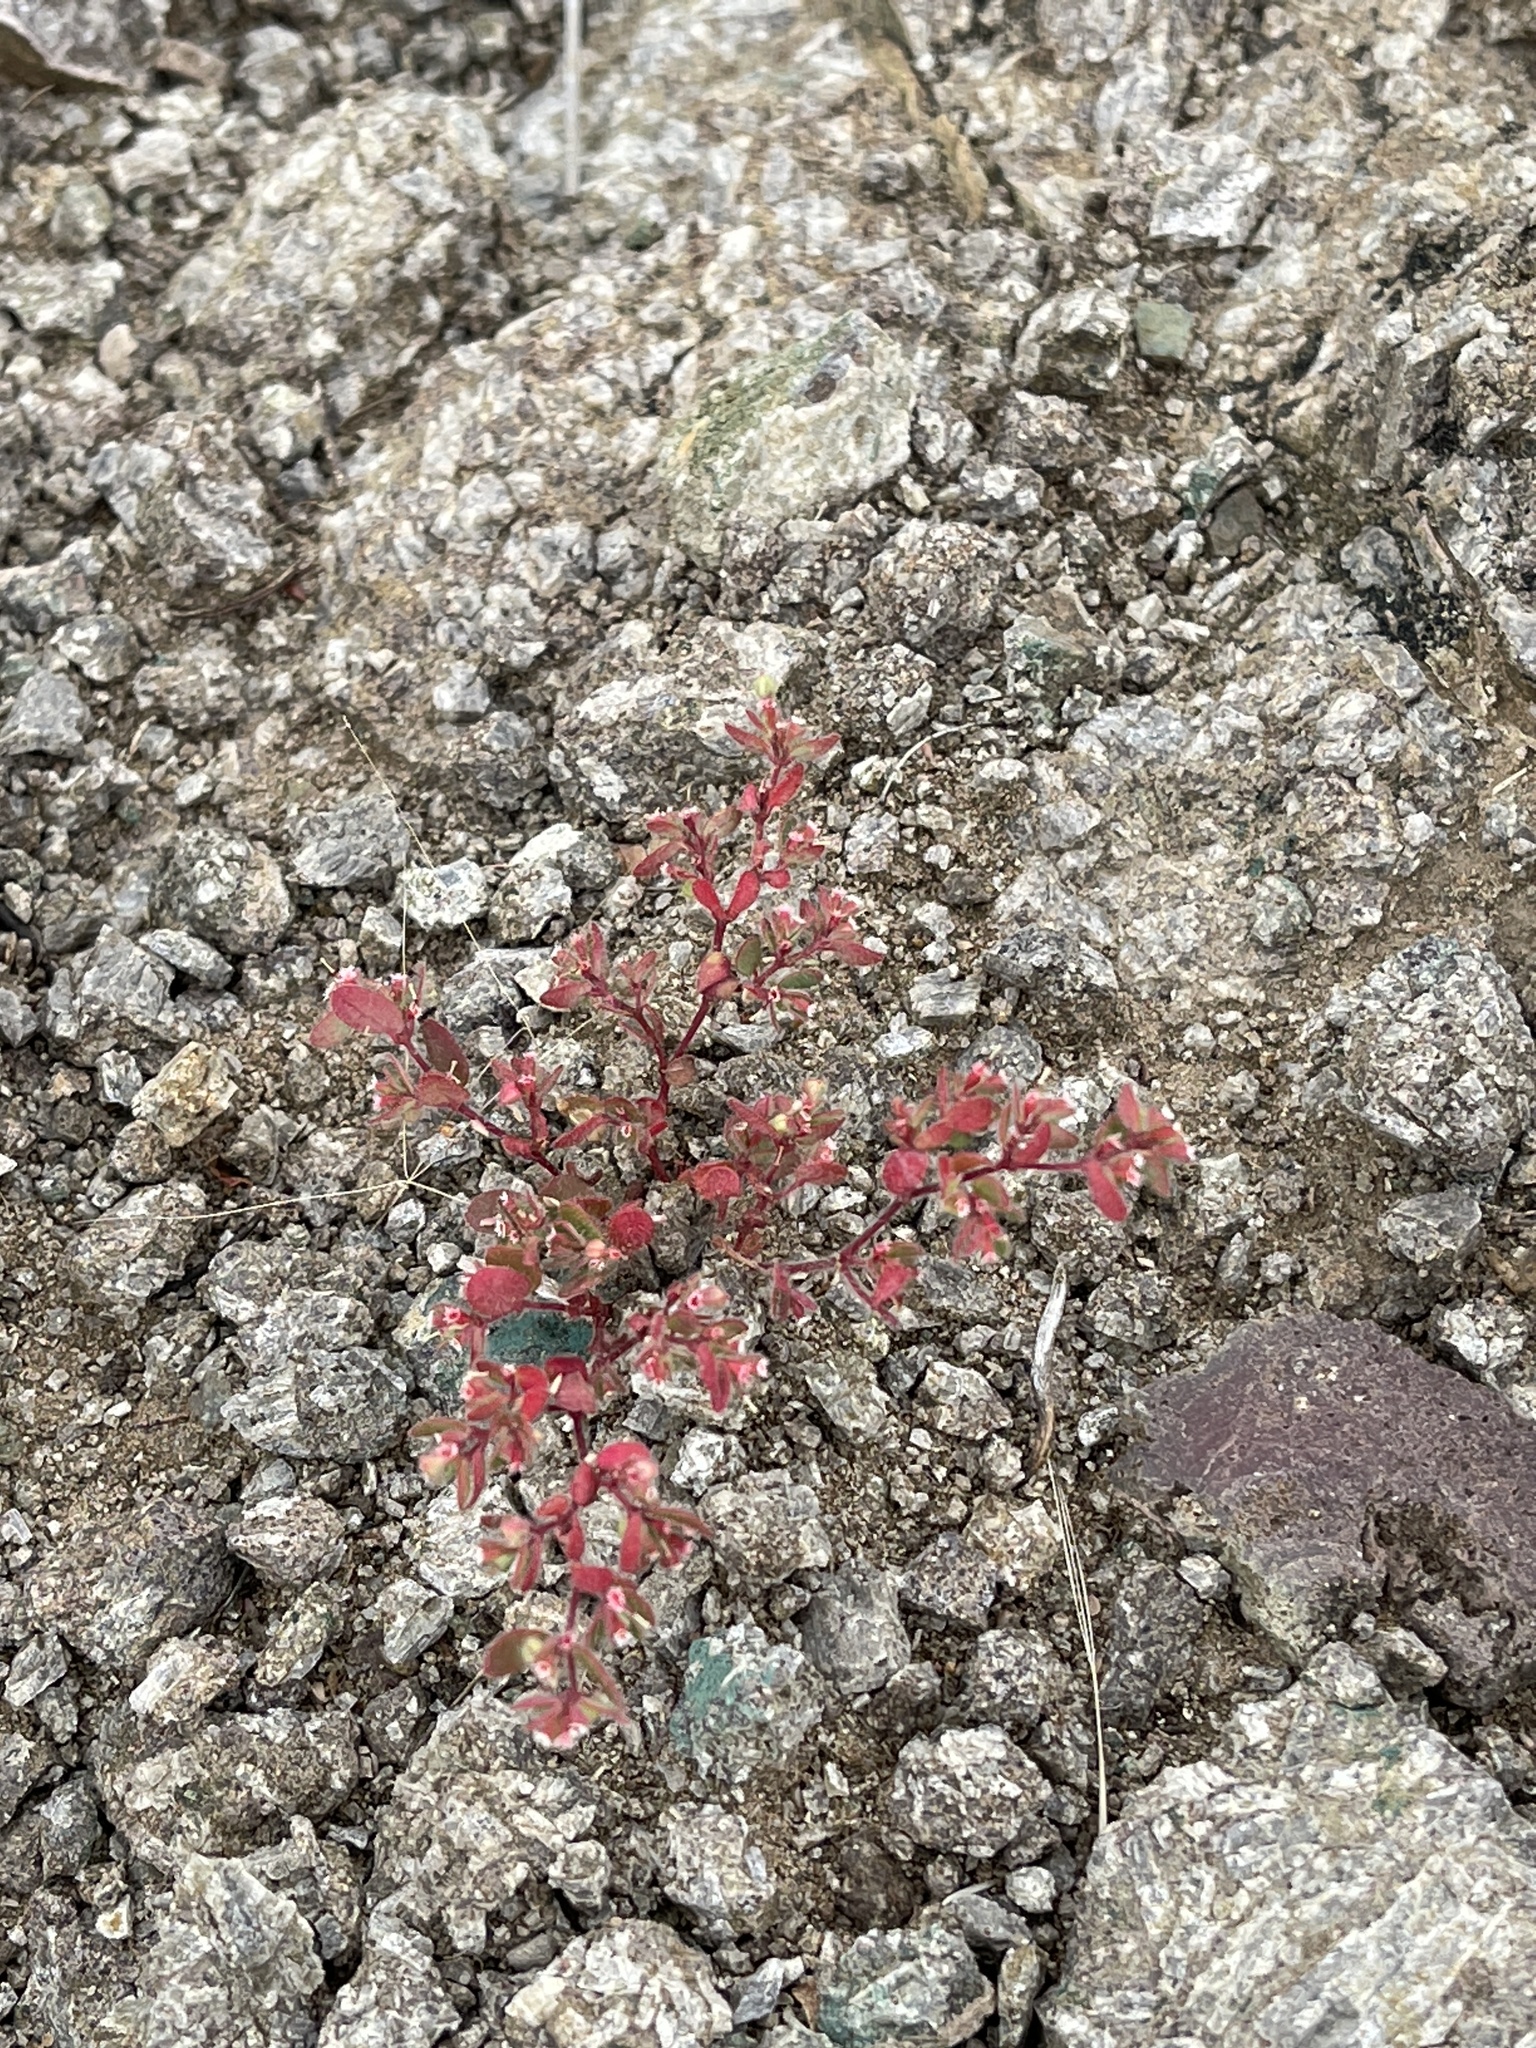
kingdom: Plantae
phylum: Tracheophyta
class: Magnoliopsida
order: Malpighiales
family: Euphorbiaceae
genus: Euphorbia
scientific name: Euphorbia setiloba
